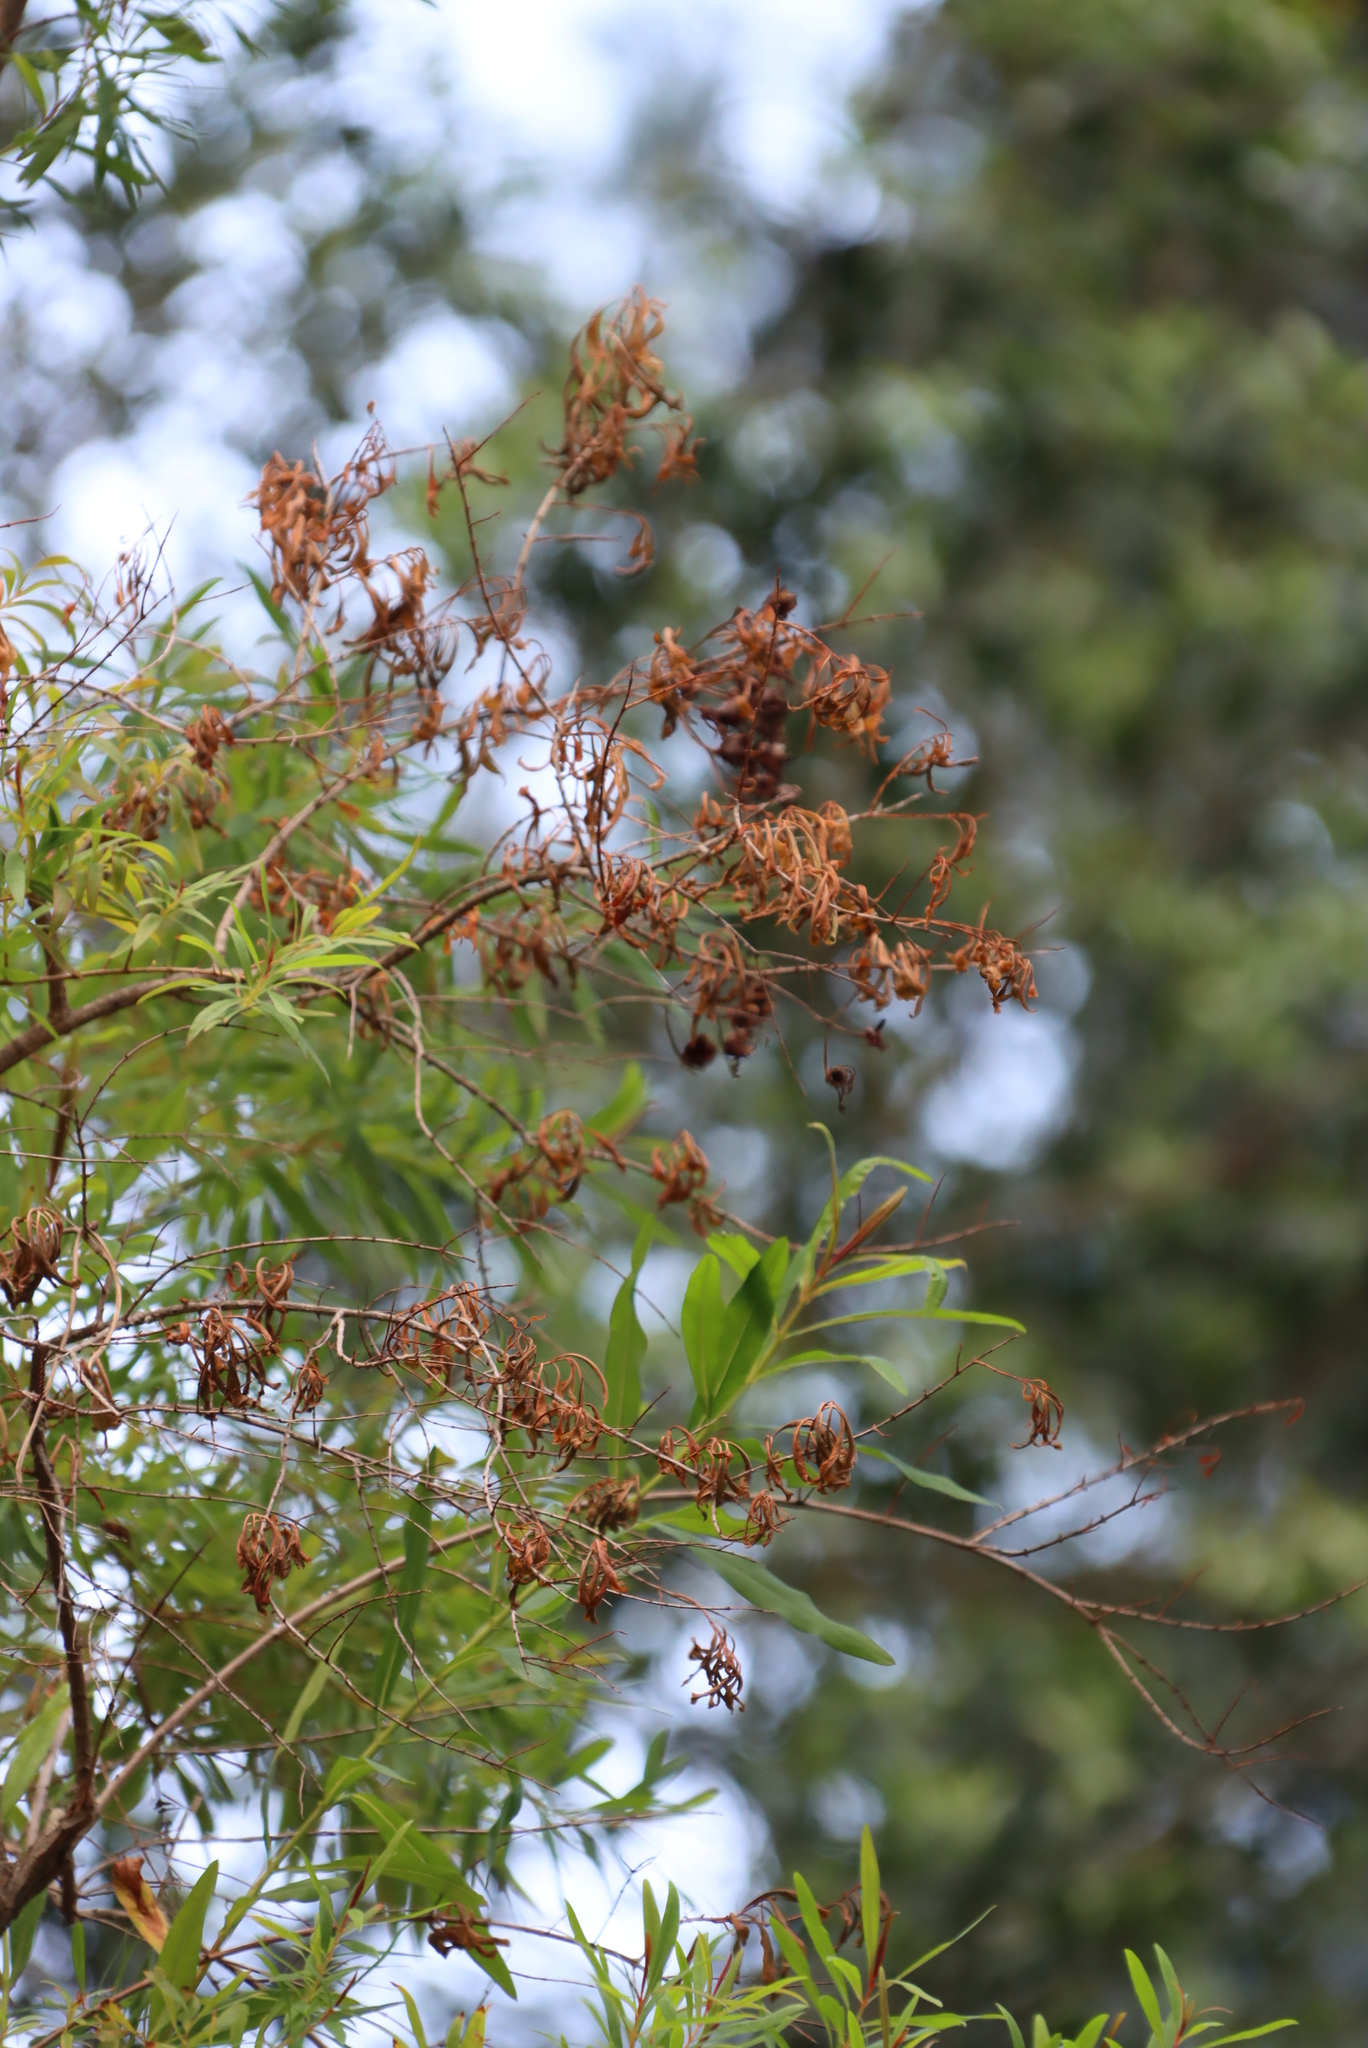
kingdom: Plantae
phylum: Tracheophyta
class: Magnoliopsida
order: Malpighiales
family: Hypericaceae
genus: Hypericum
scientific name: Hypericum canariense
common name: Canary island st. johnswort
